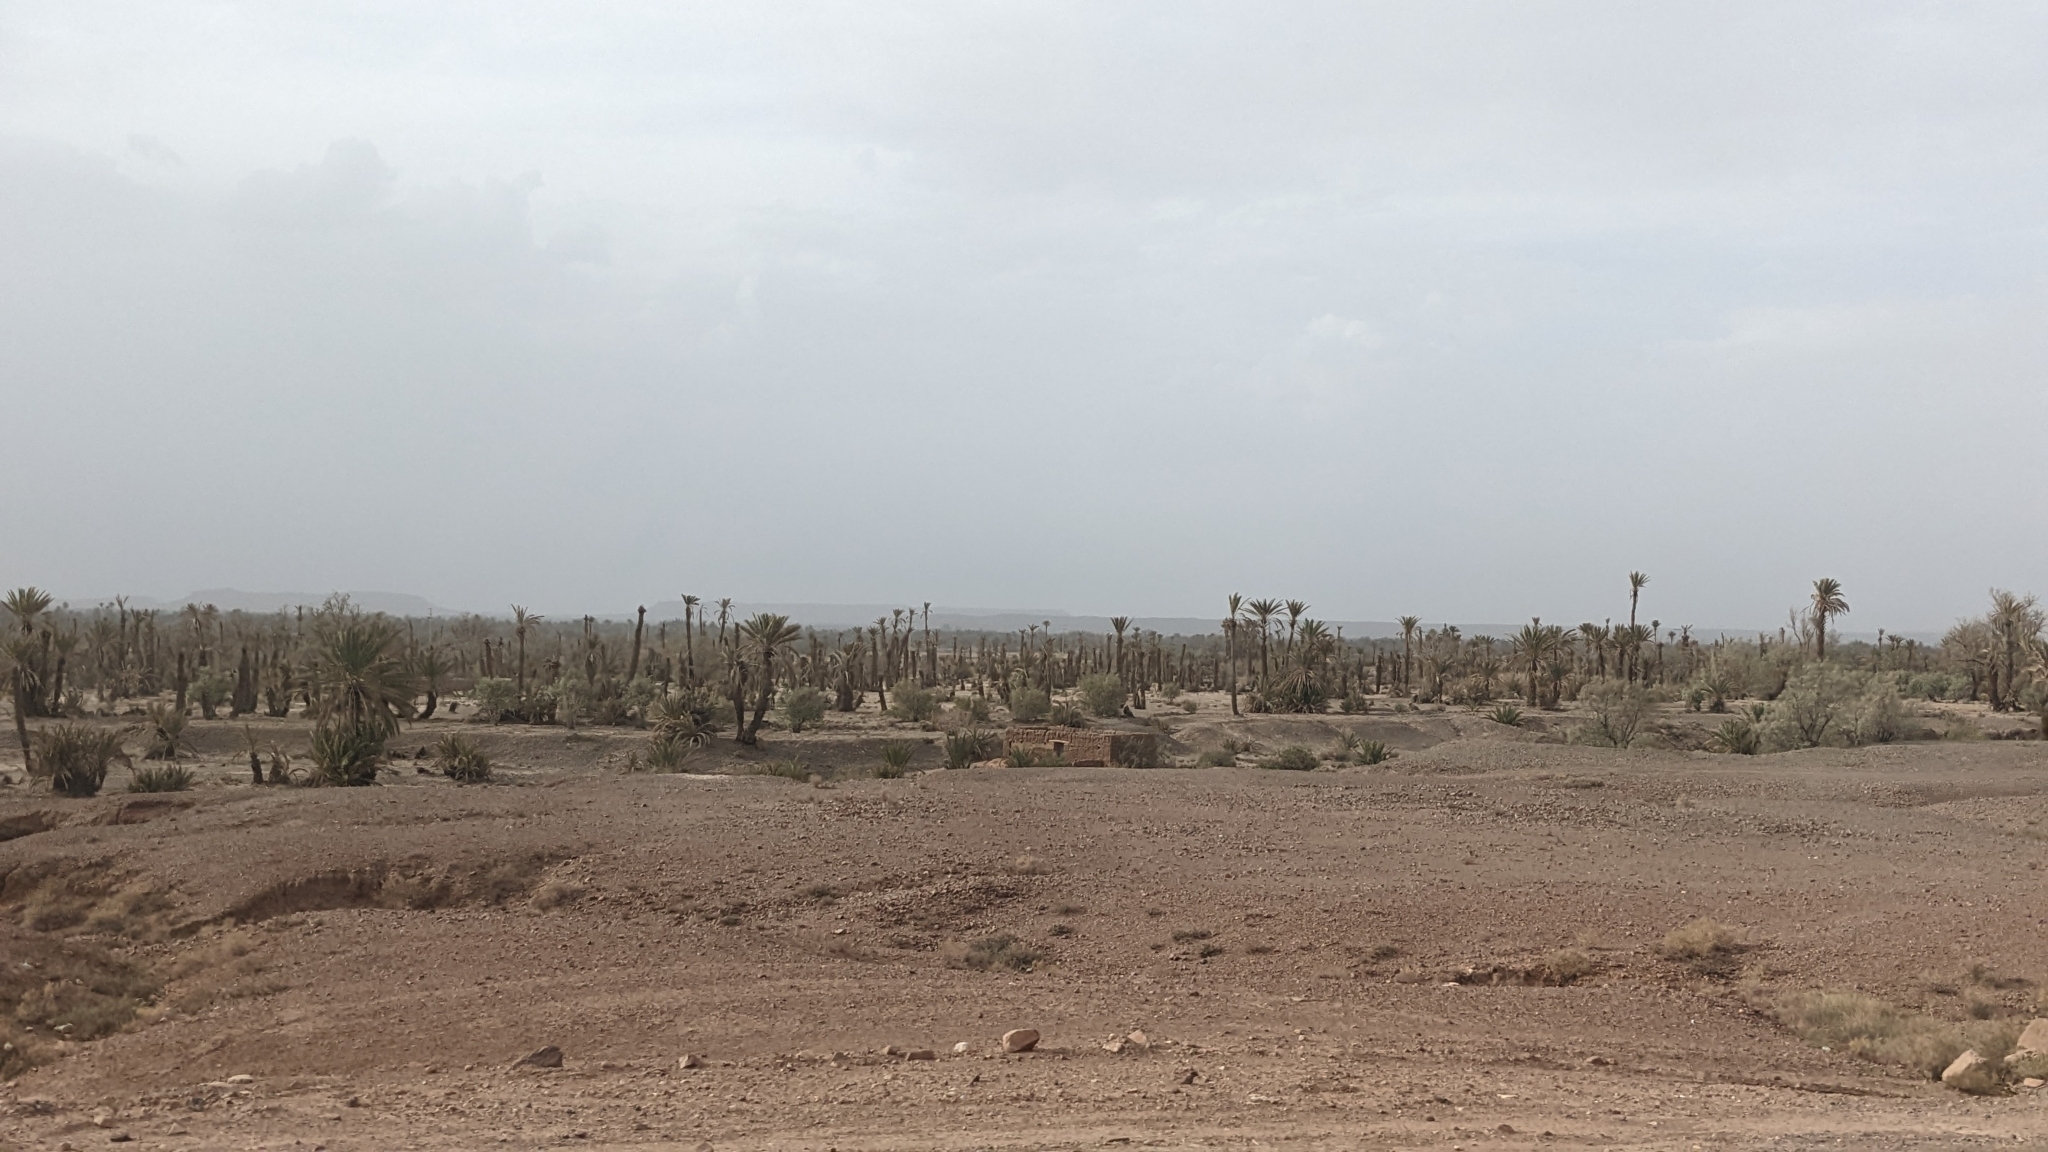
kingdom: Plantae
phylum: Tracheophyta
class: Liliopsida
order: Arecales
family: Arecaceae
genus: Phoenix
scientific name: Phoenix dactylifera
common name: Date palm
